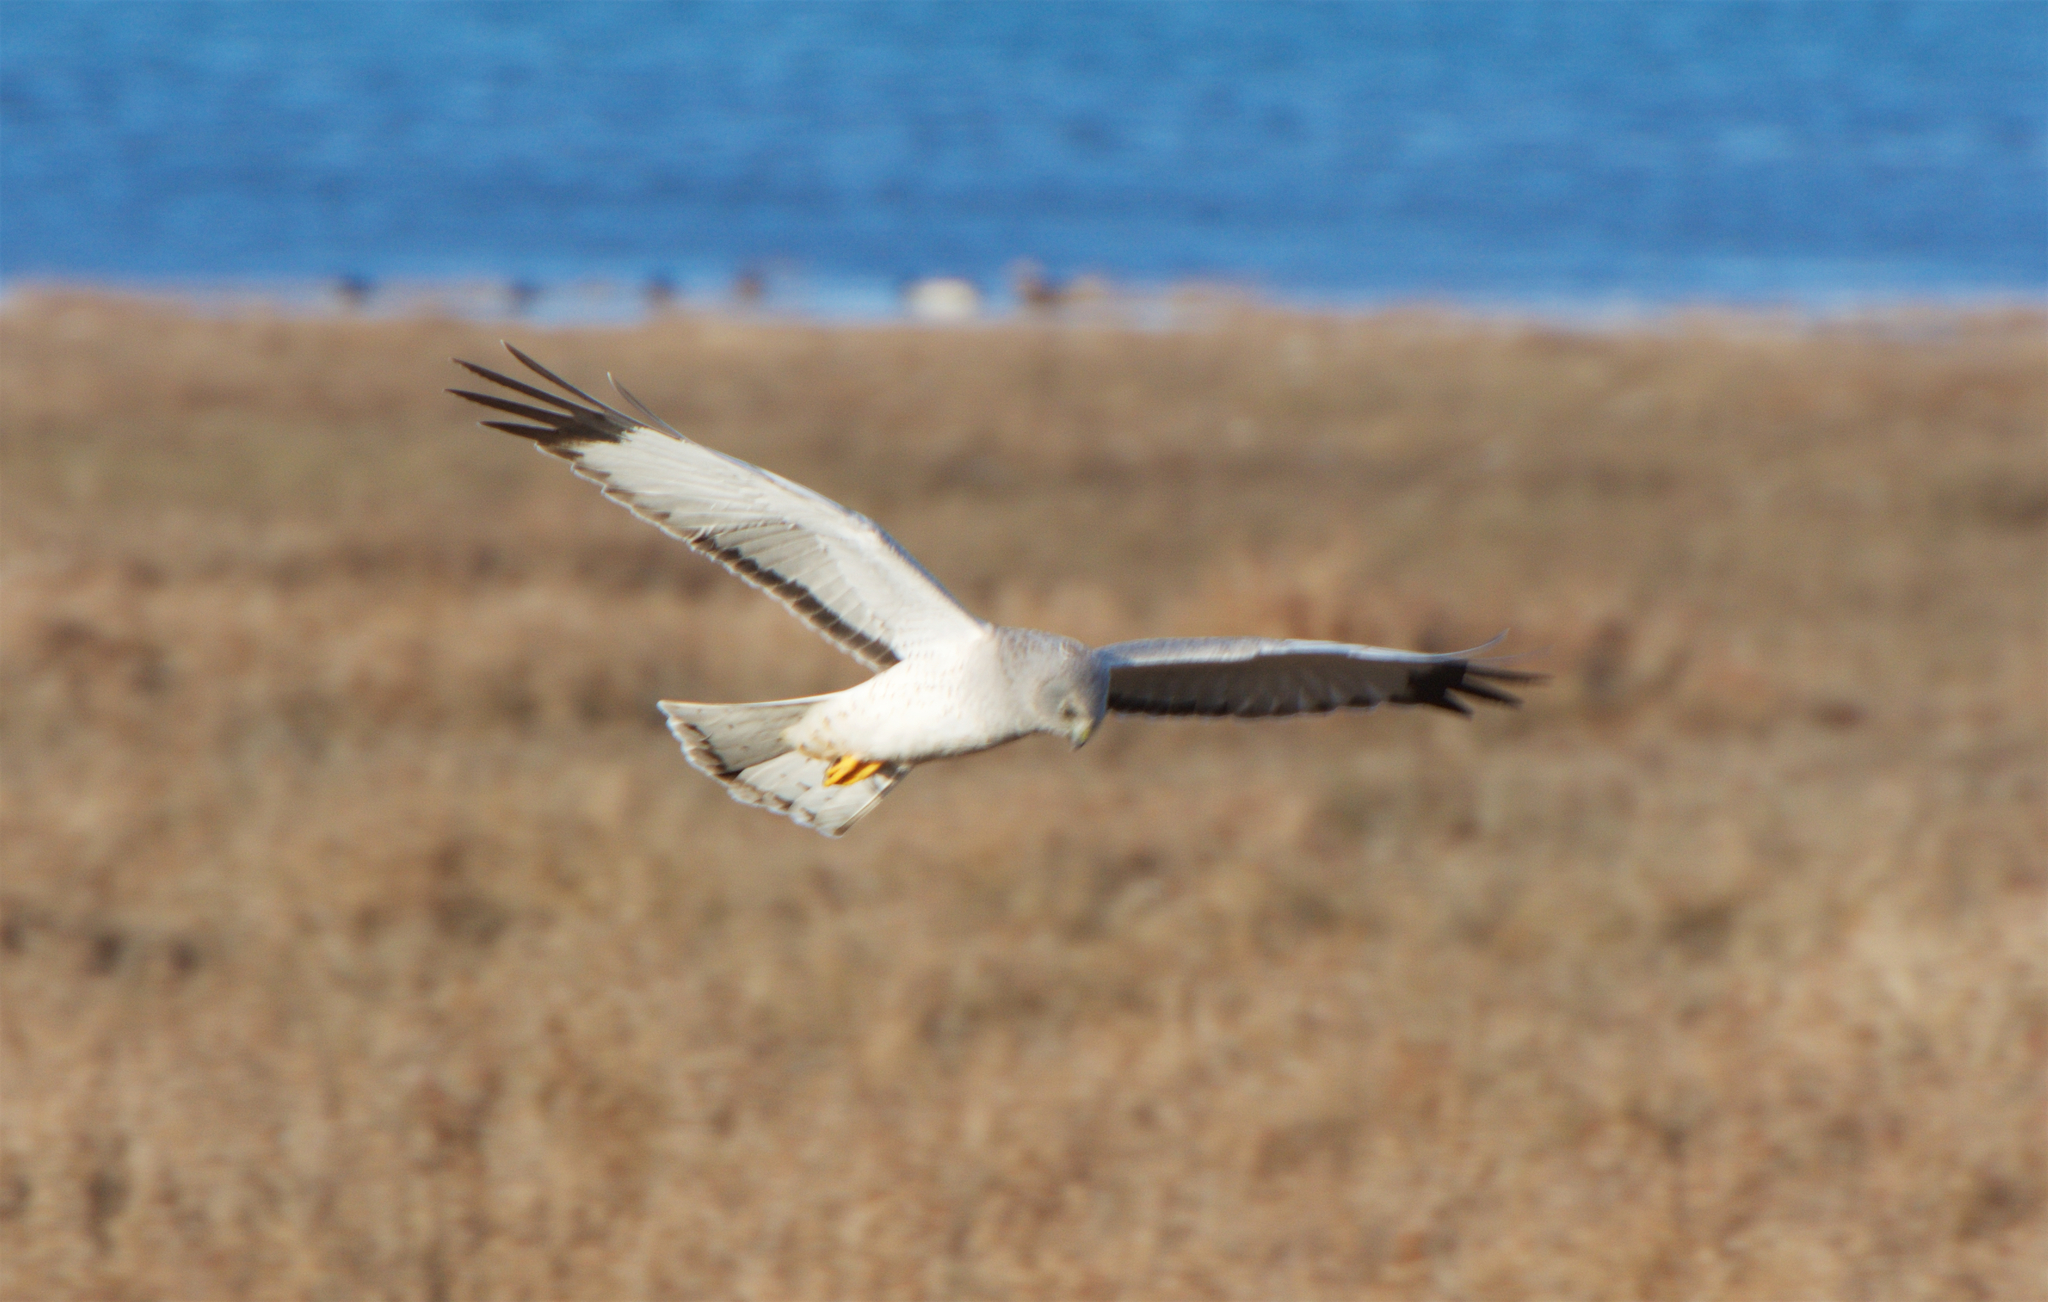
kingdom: Animalia
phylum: Chordata
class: Aves
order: Accipitriformes
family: Accipitridae
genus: Circus
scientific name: Circus cyaneus
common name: Hen harrier
